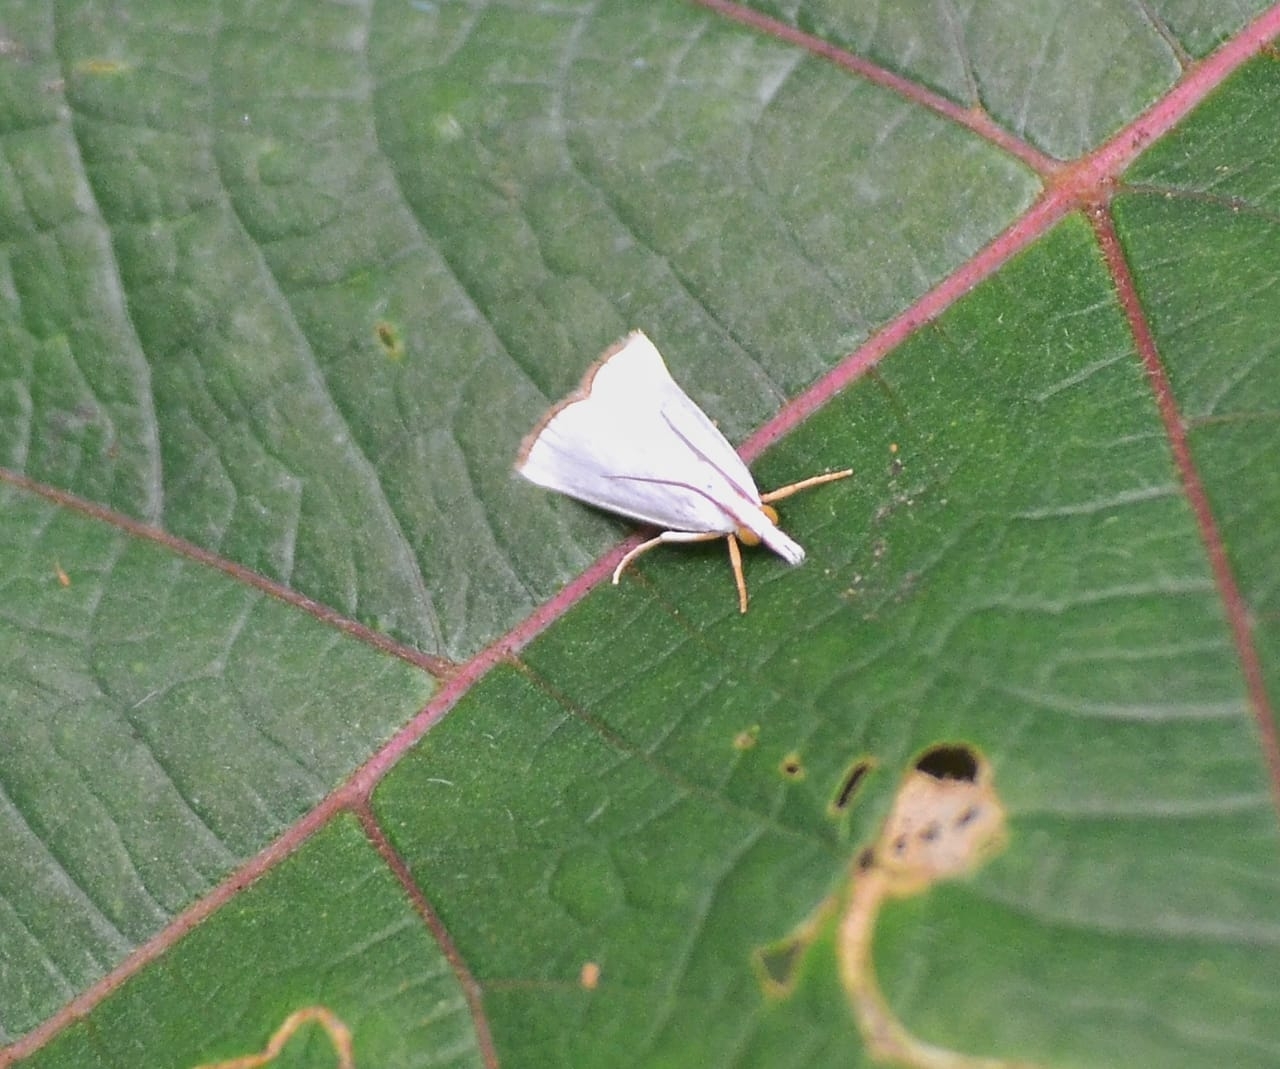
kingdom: Animalia
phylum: Arthropoda
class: Insecta
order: Lepidoptera
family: Crambidae
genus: Pseudocatharylla
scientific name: Pseudocatharylla nigrociliella
